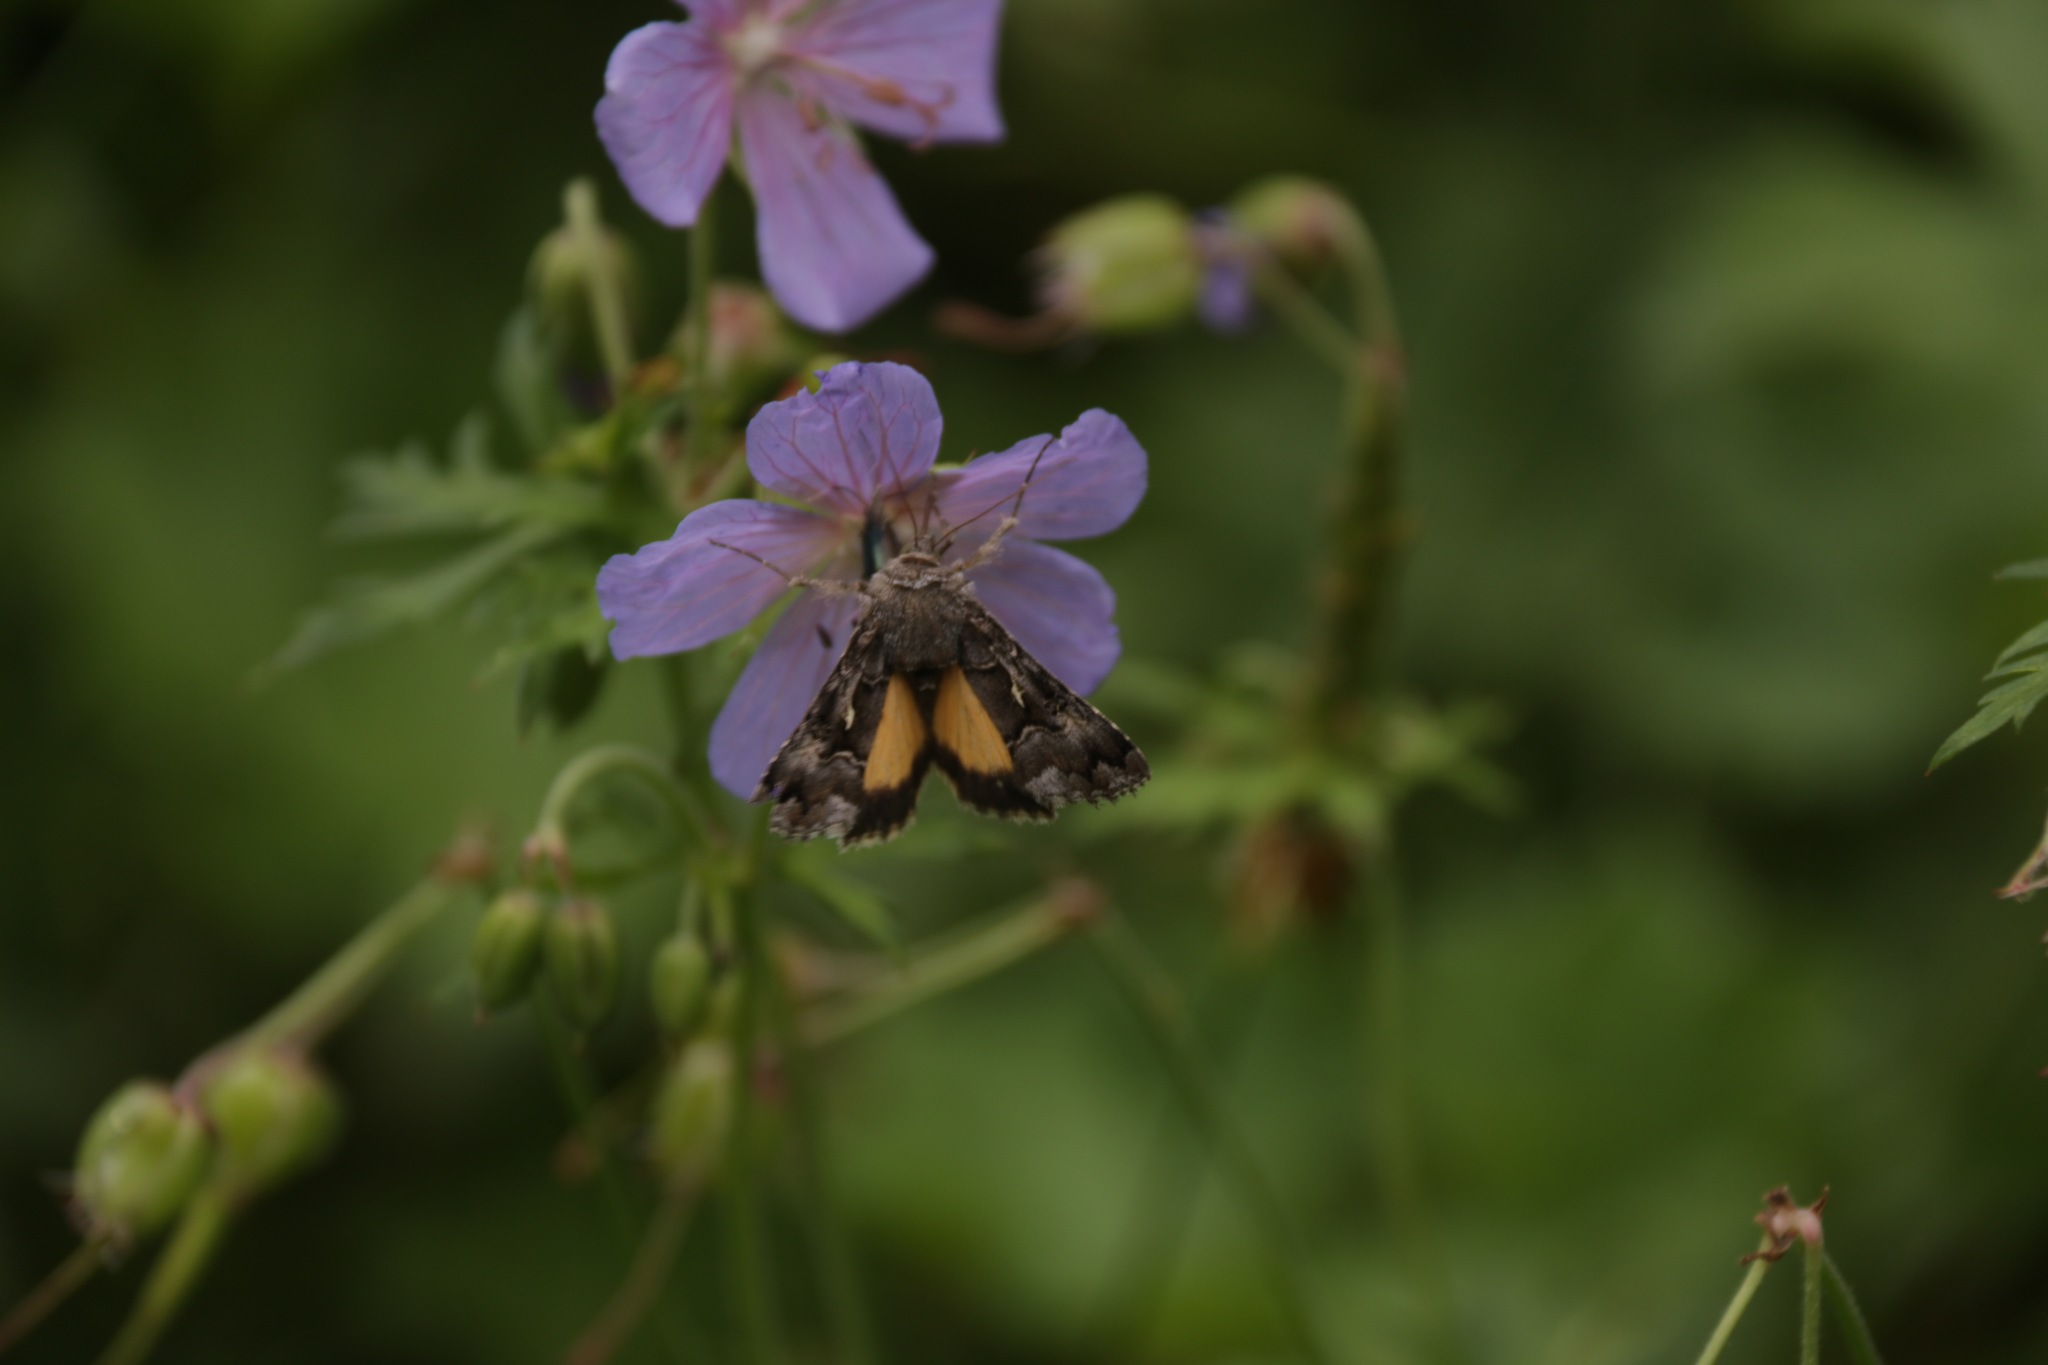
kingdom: Animalia
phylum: Arthropoda
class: Insecta
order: Lepidoptera
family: Noctuidae
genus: Syngrapha
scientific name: Syngrapha ain
